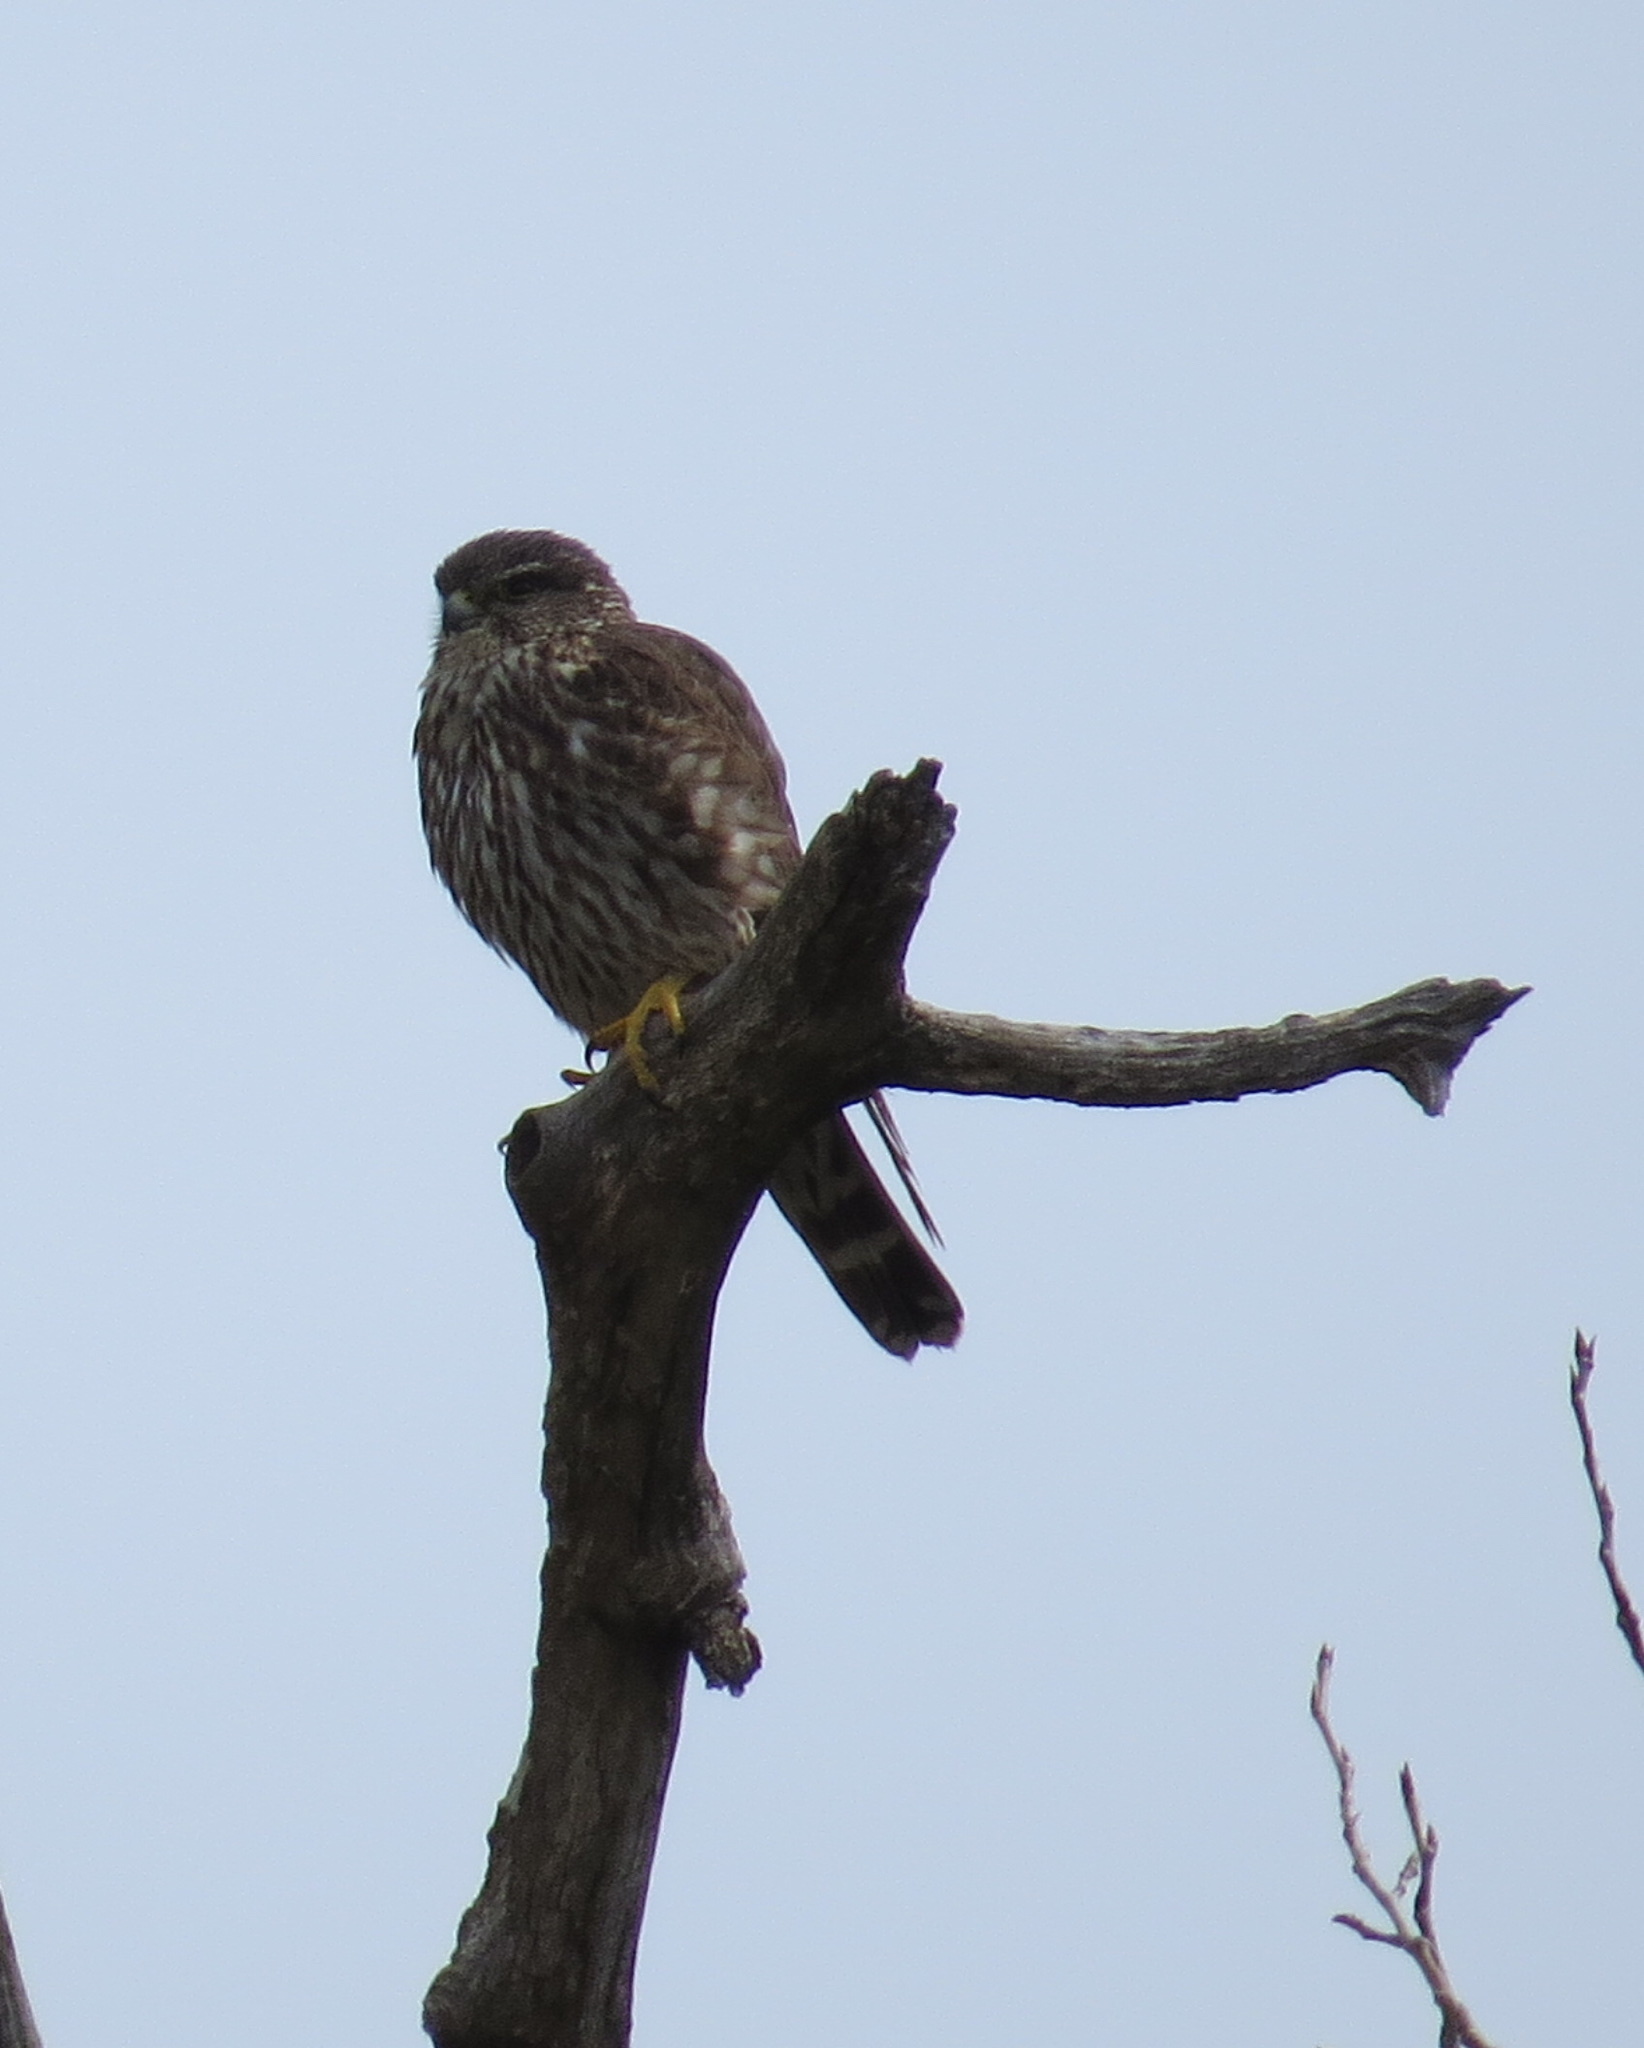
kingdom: Animalia
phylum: Chordata
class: Aves
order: Falconiformes
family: Falconidae
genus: Falco
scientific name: Falco columbarius
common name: Merlin
